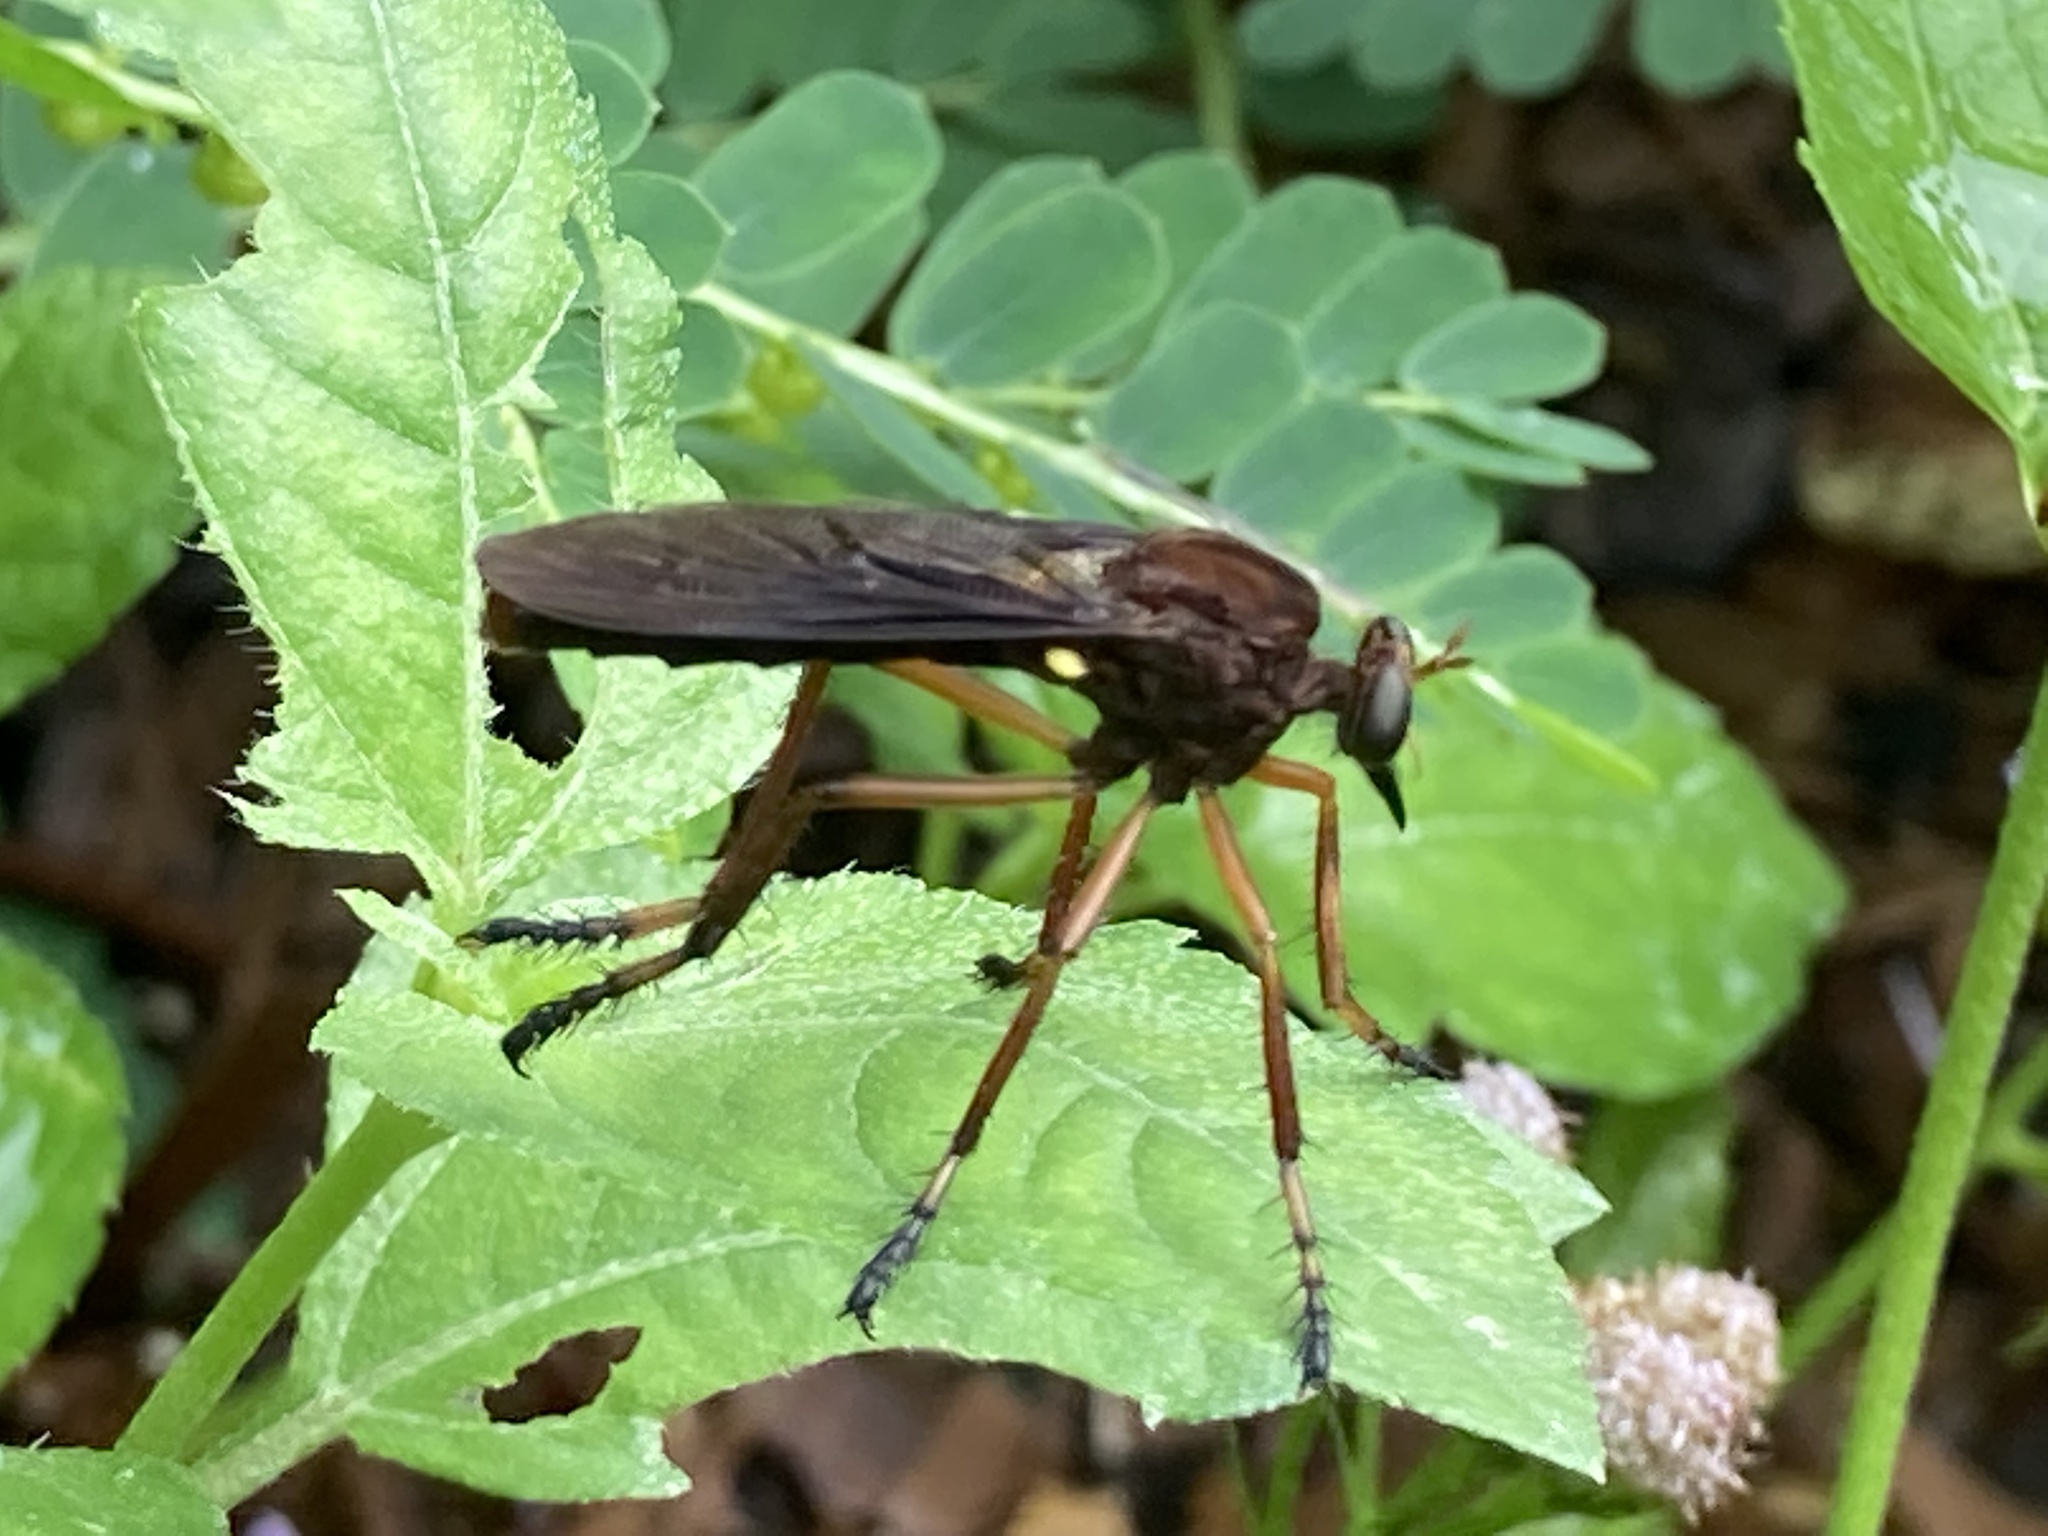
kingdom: Animalia
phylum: Arthropoda
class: Insecta
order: Diptera
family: Asilidae
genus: Diogmites
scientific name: Diogmites platypterus
